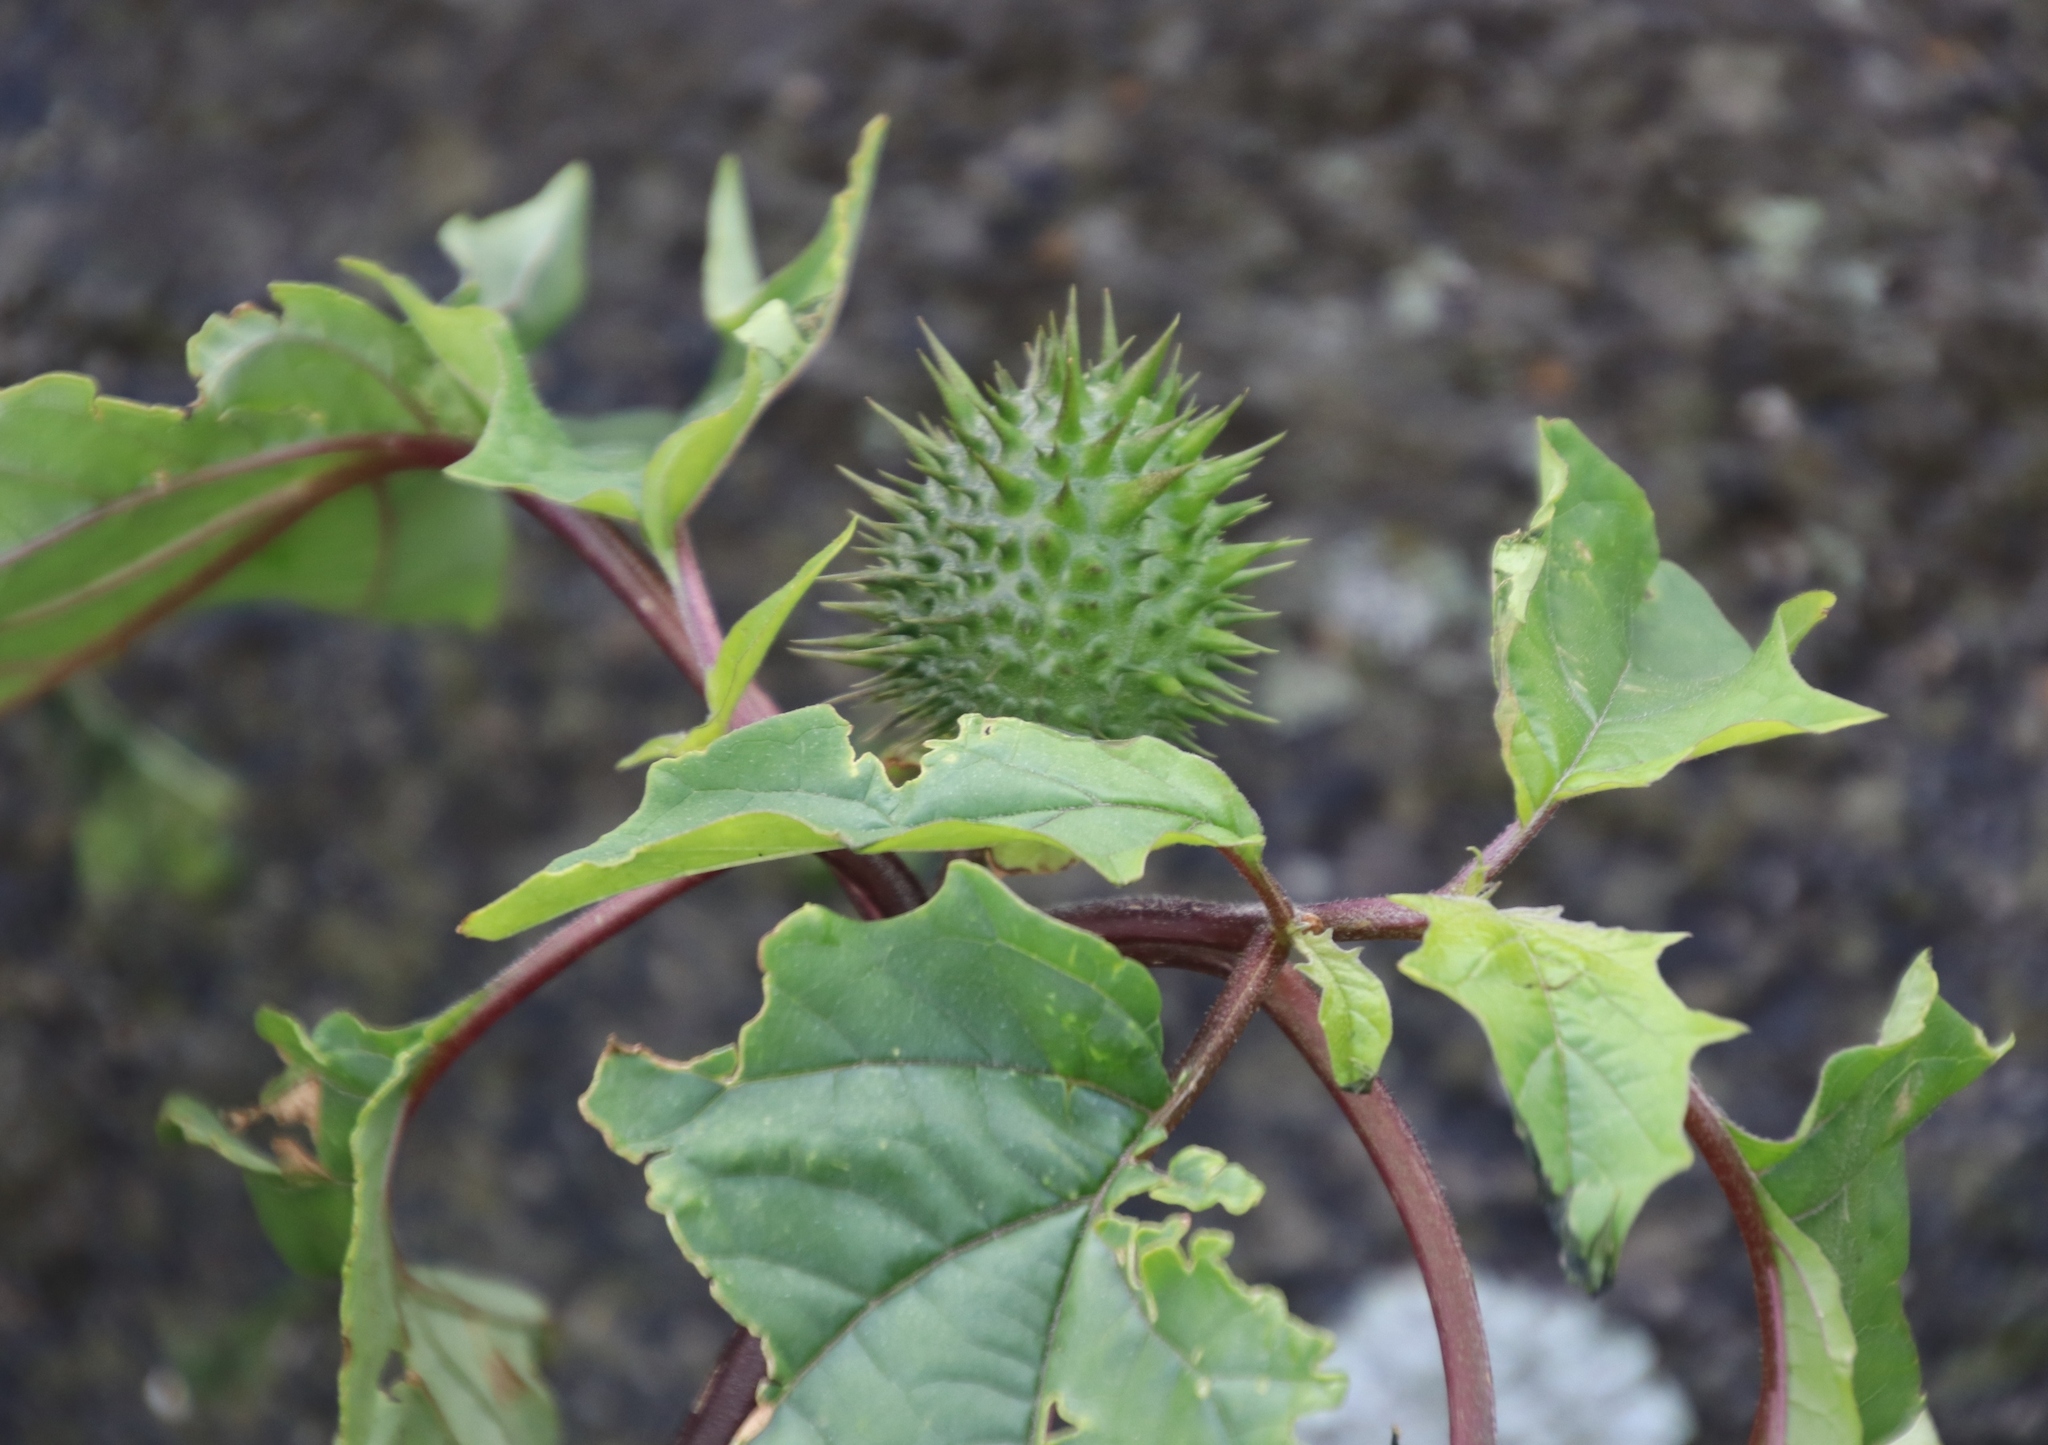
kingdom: Plantae
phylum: Tracheophyta
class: Magnoliopsida
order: Solanales
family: Solanaceae
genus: Datura
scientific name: Datura stramonium
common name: Thorn-apple
